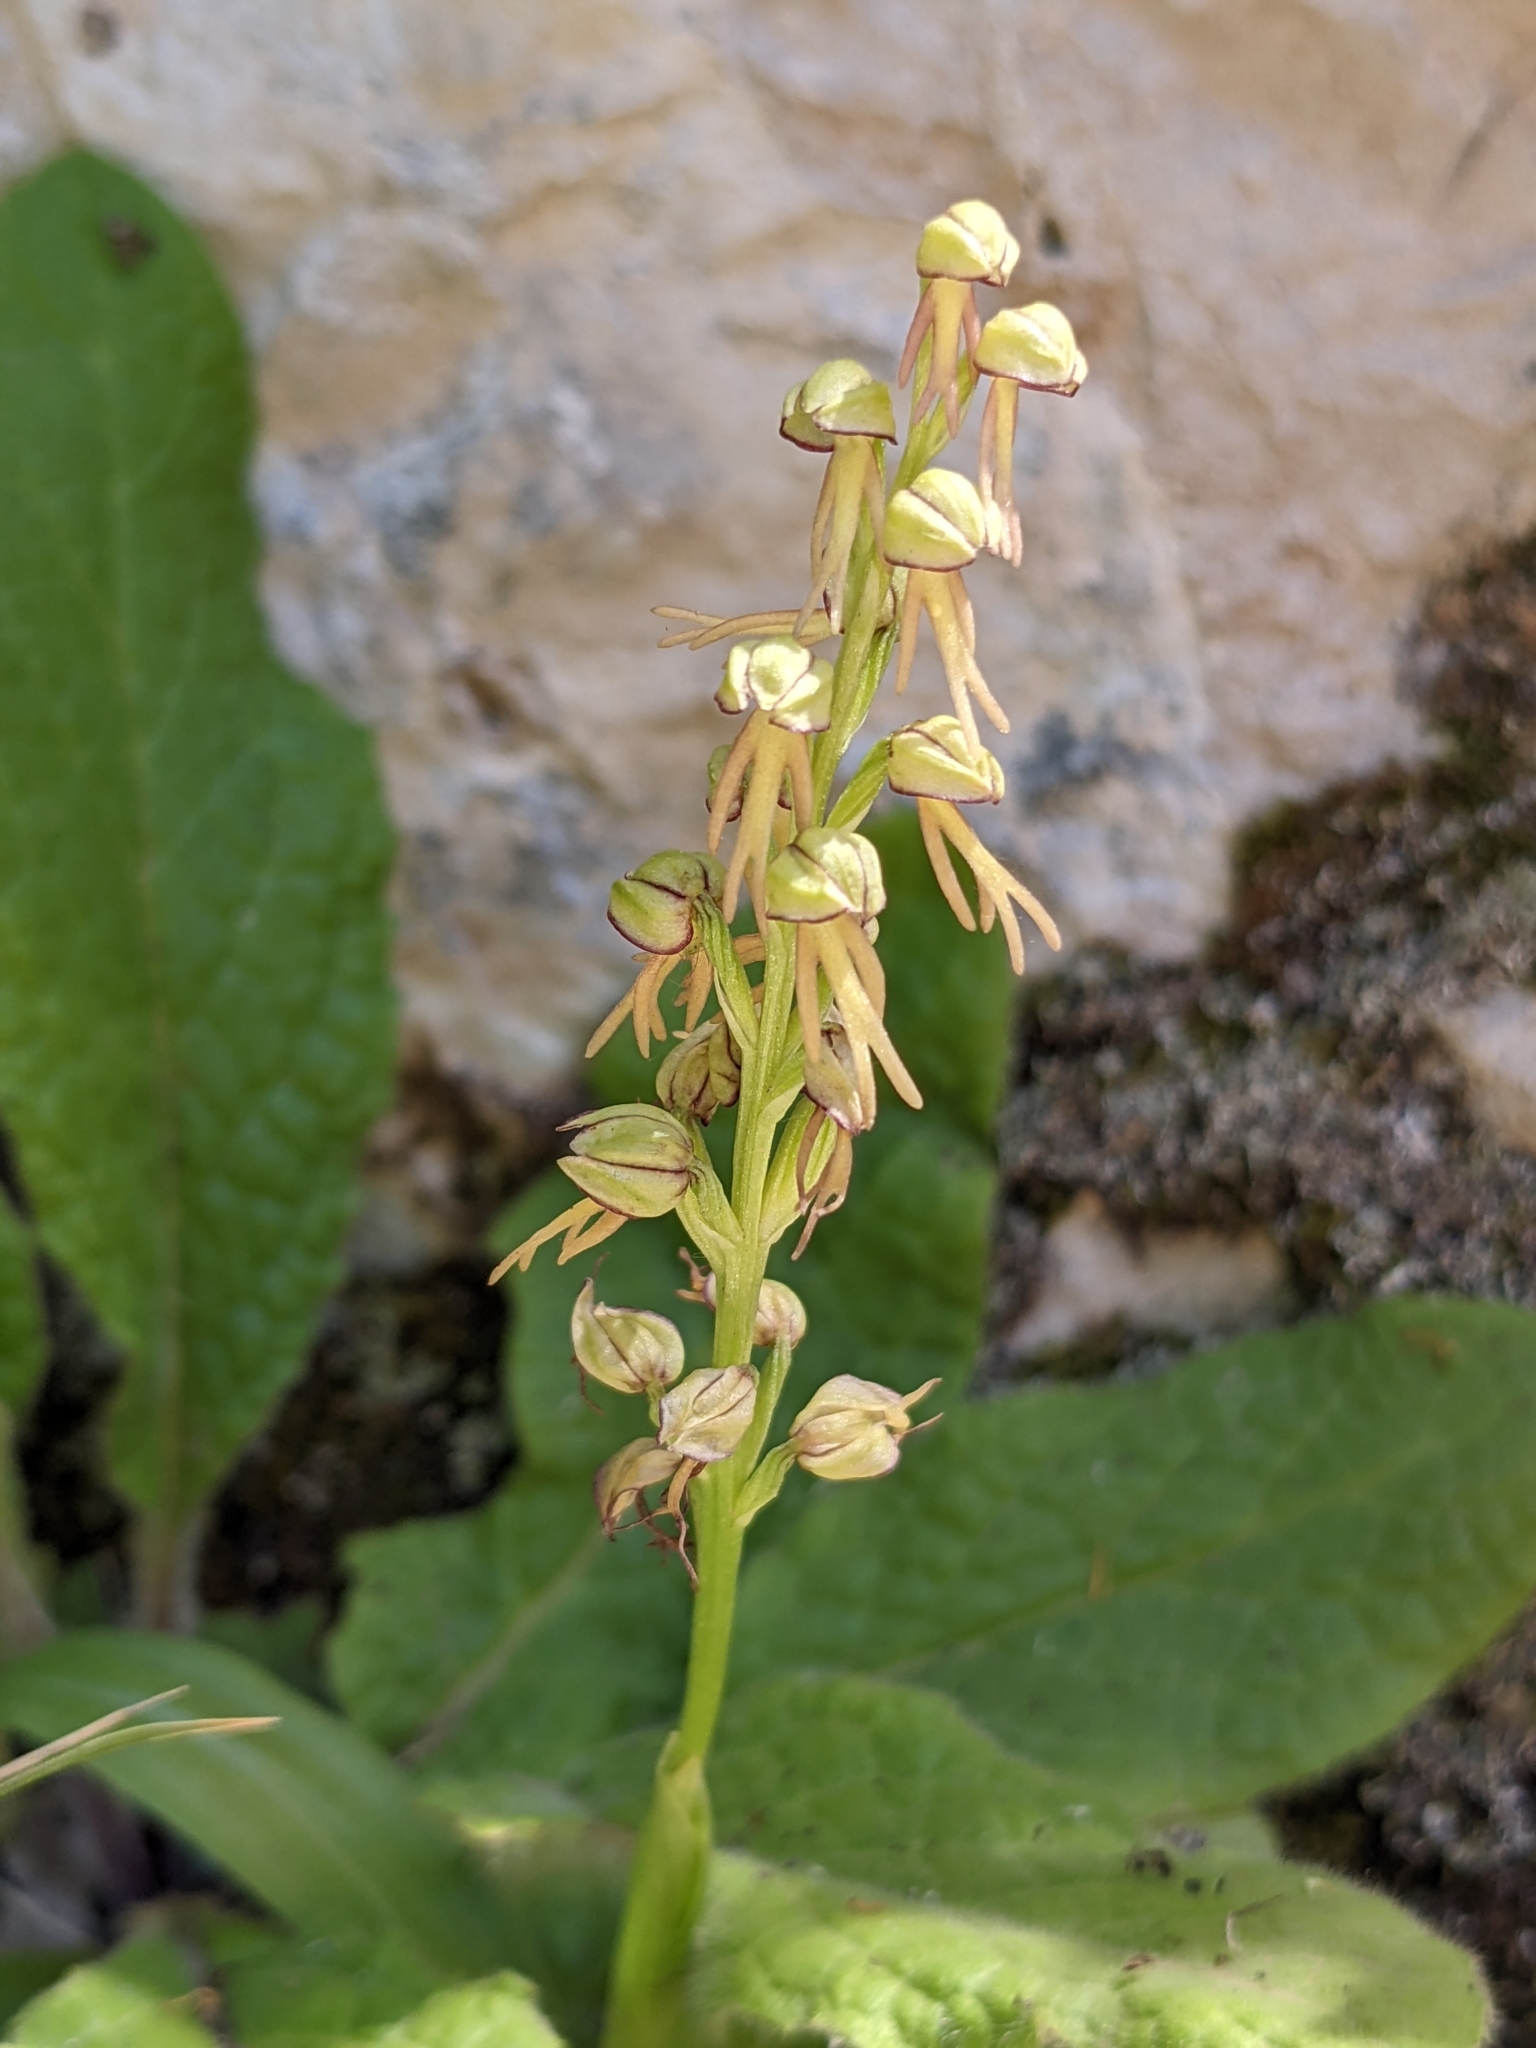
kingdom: Plantae
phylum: Tracheophyta
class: Liliopsida
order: Asparagales
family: Orchidaceae
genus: Orchis
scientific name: Orchis anthropophora
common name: Man orchid
